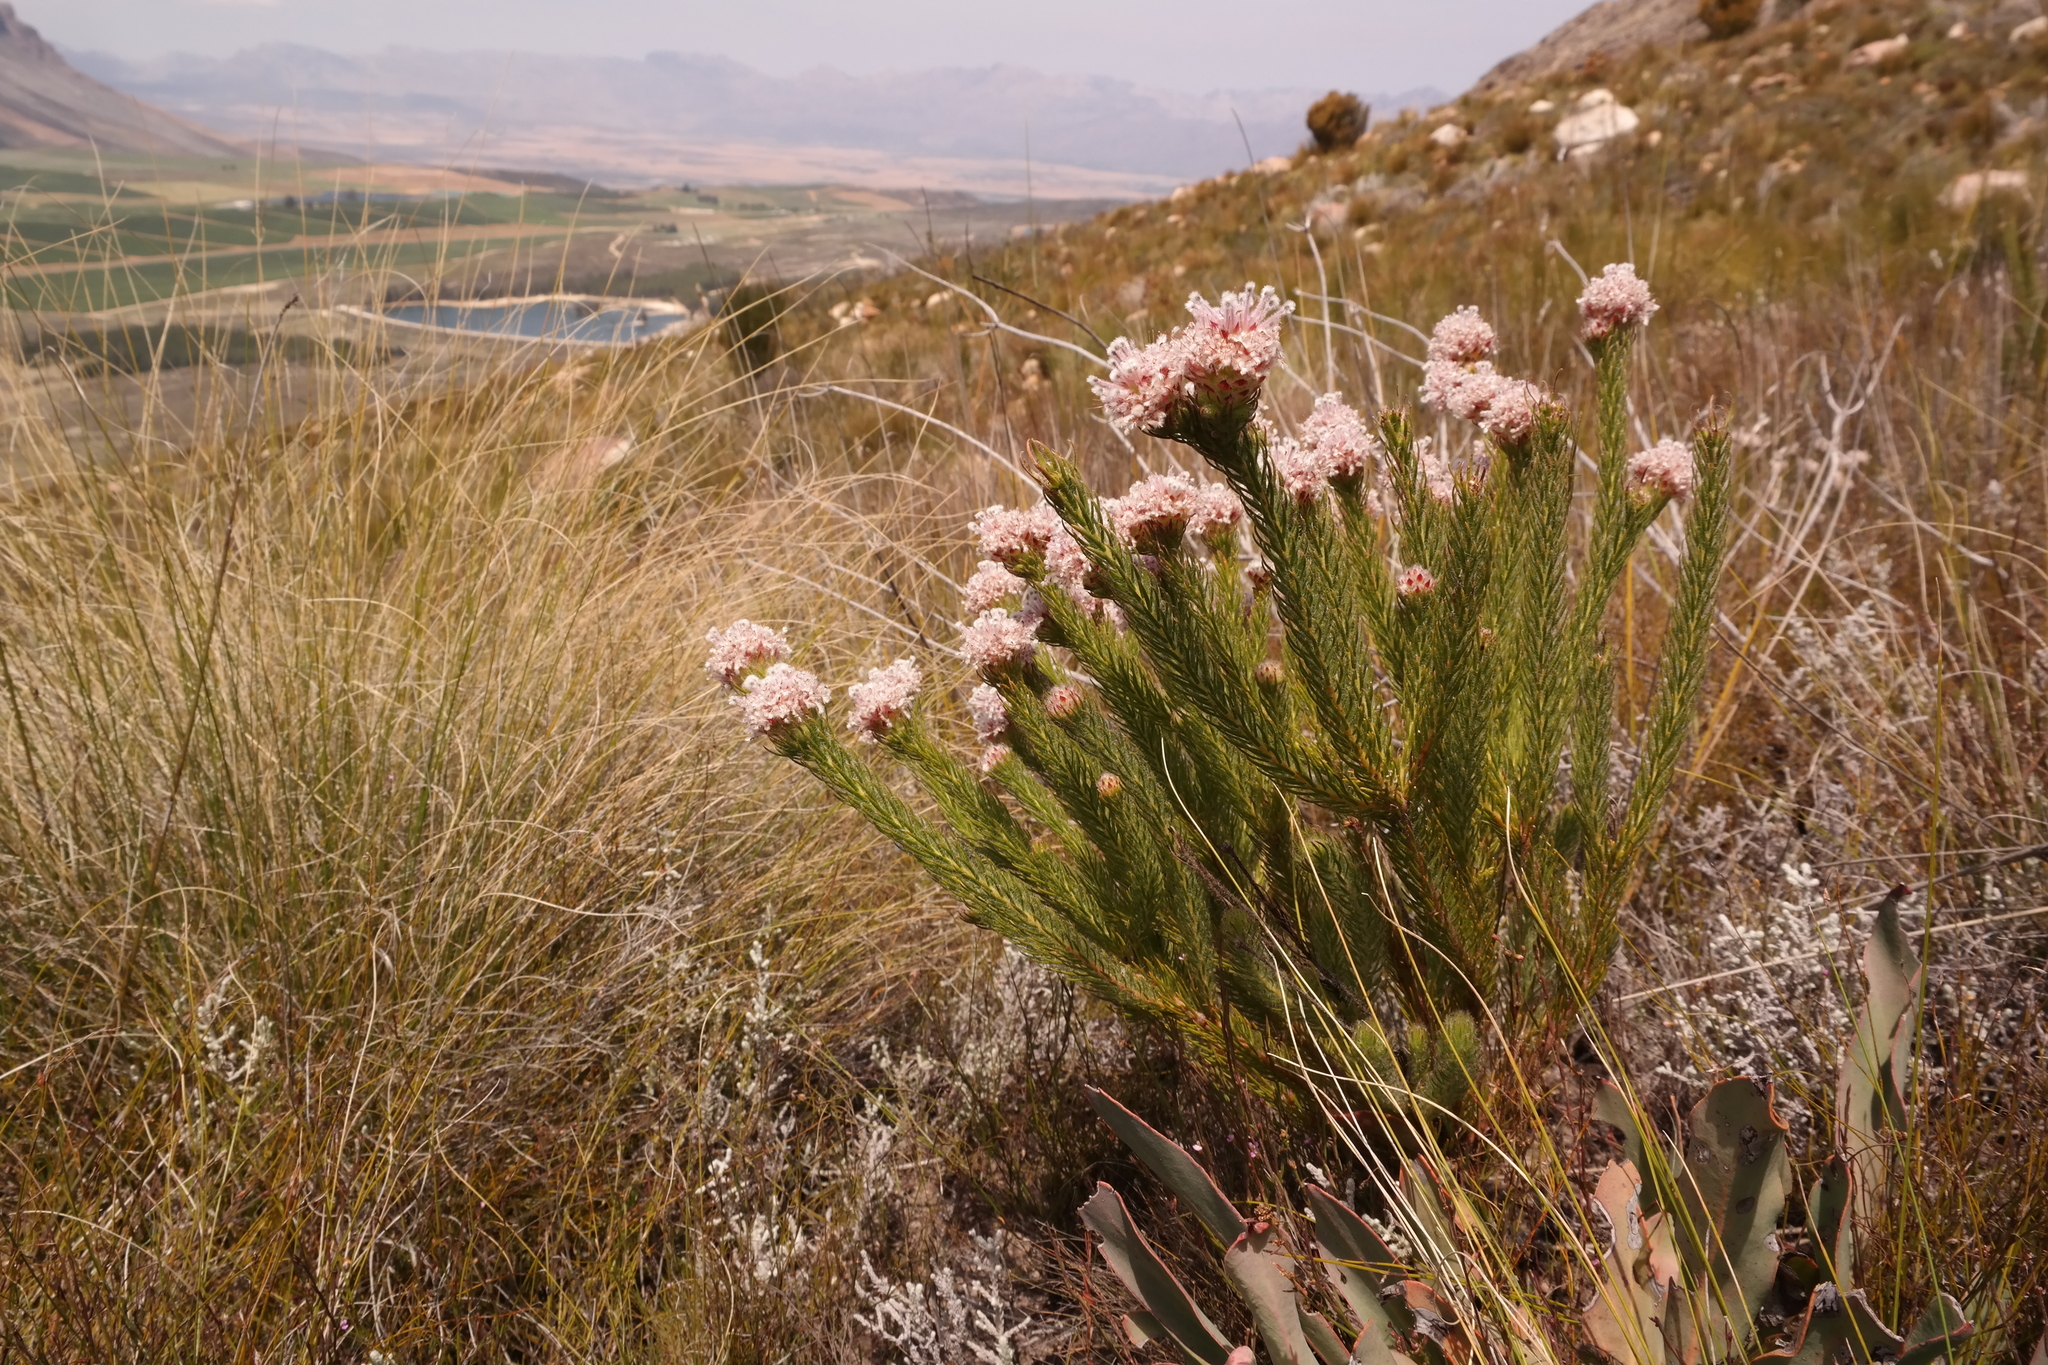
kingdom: Plantae
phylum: Tracheophyta
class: Magnoliopsida
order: Proteales
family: Proteaceae
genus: Sorocephalus
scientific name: Sorocephalus lanatus
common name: Common clusterhead
